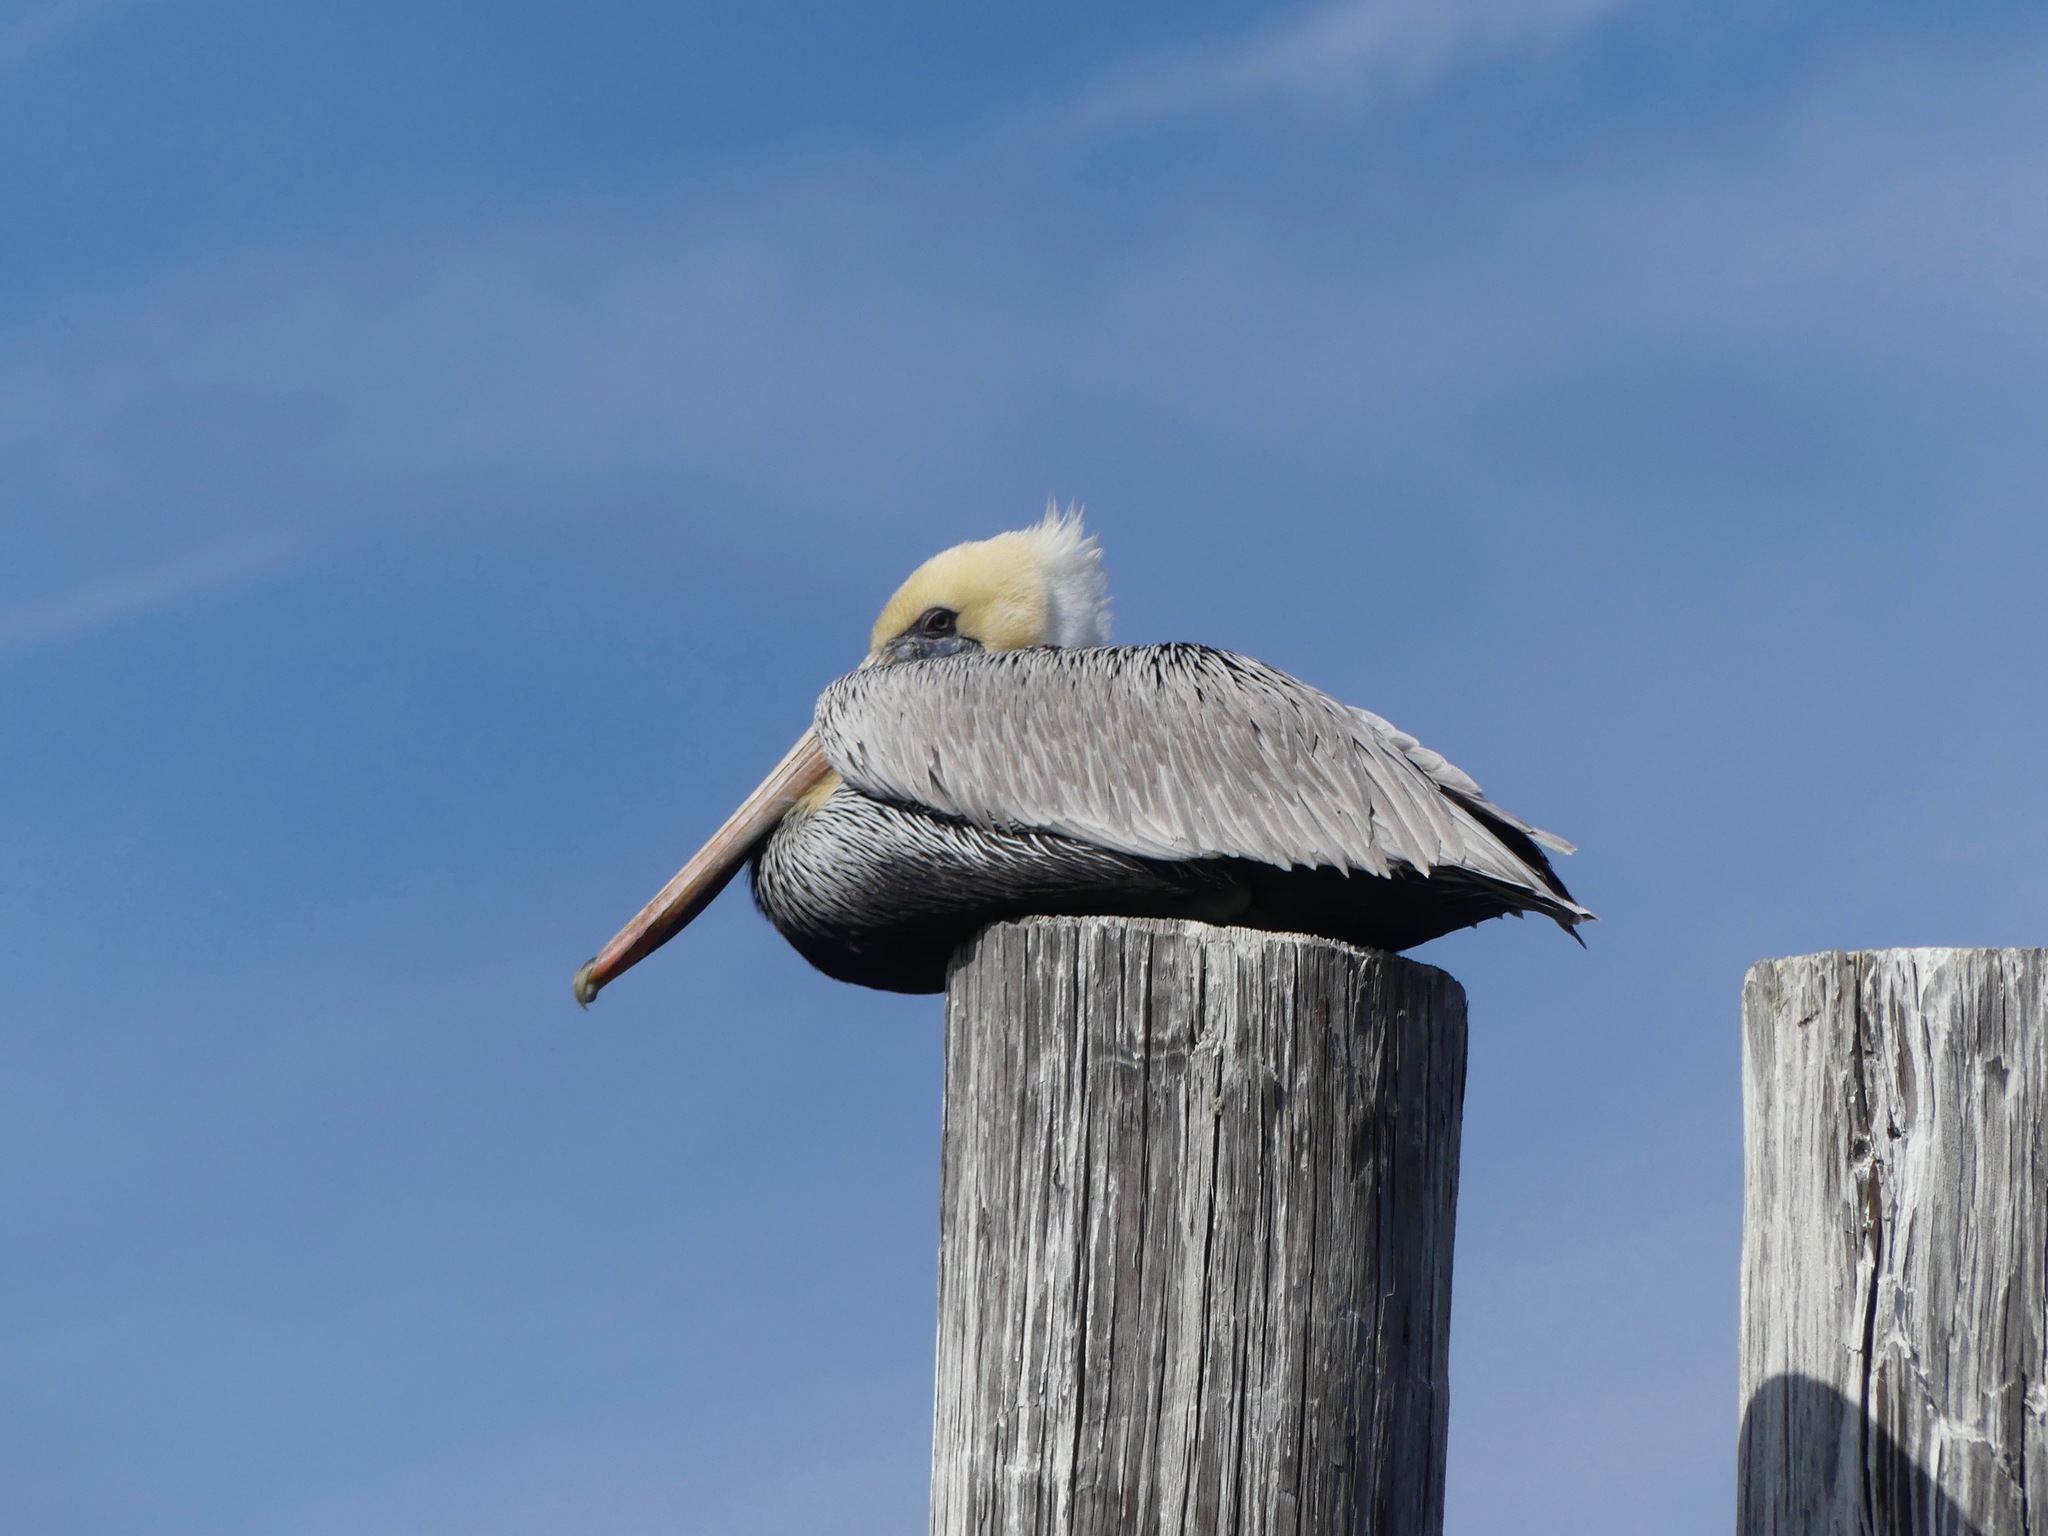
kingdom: Animalia
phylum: Chordata
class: Aves
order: Pelecaniformes
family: Pelecanidae
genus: Pelecanus
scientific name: Pelecanus occidentalis
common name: Brown pelican
